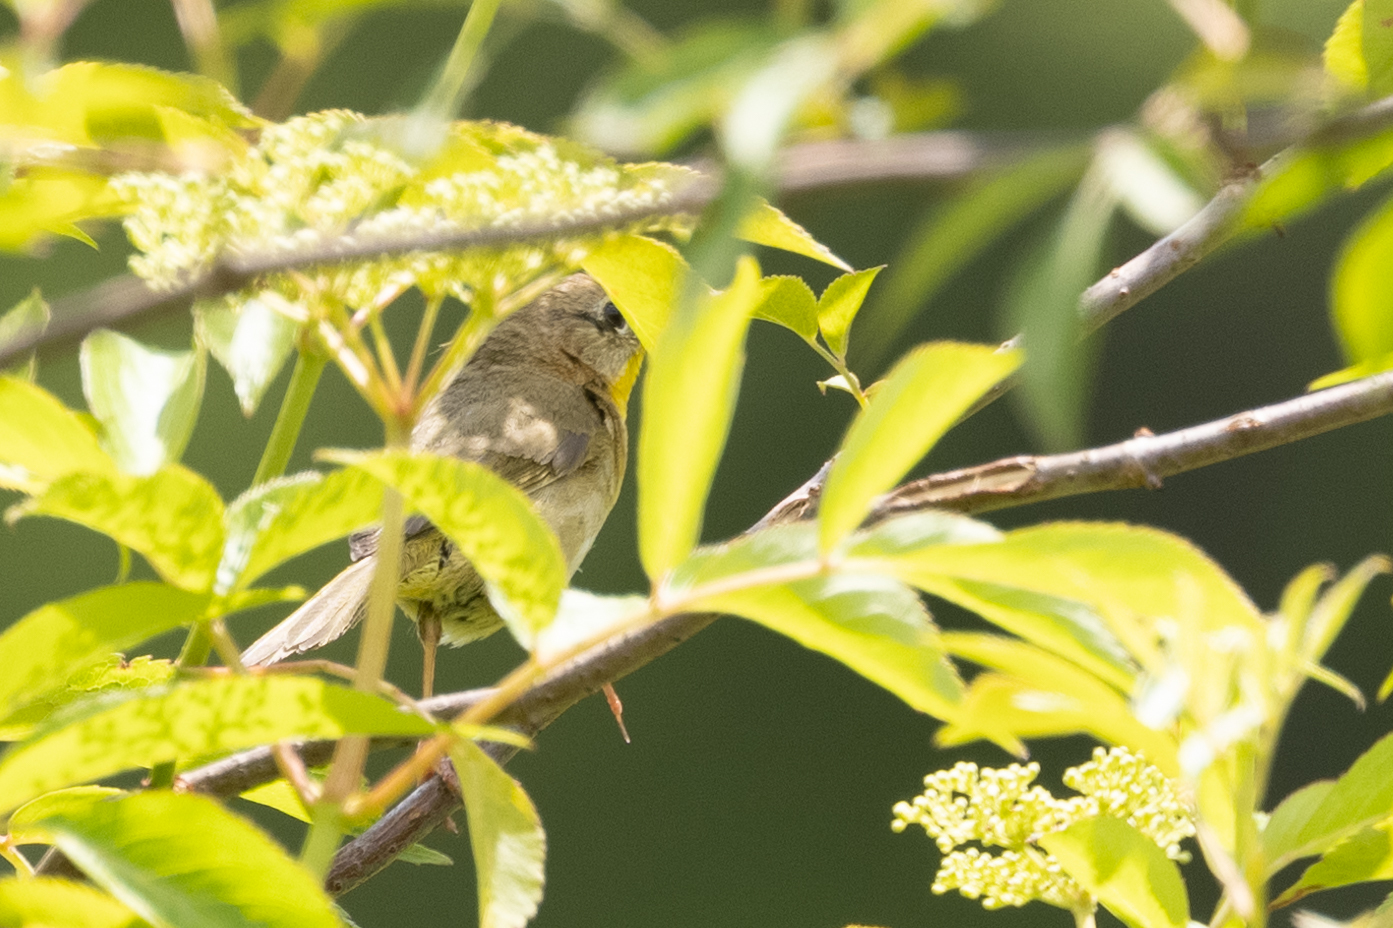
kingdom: Animalia
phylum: Chordata
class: Aves
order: Passeriformes
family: Parulidae
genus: Geothlypis
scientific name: Geothlypis trichas
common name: Common yellowthroat
